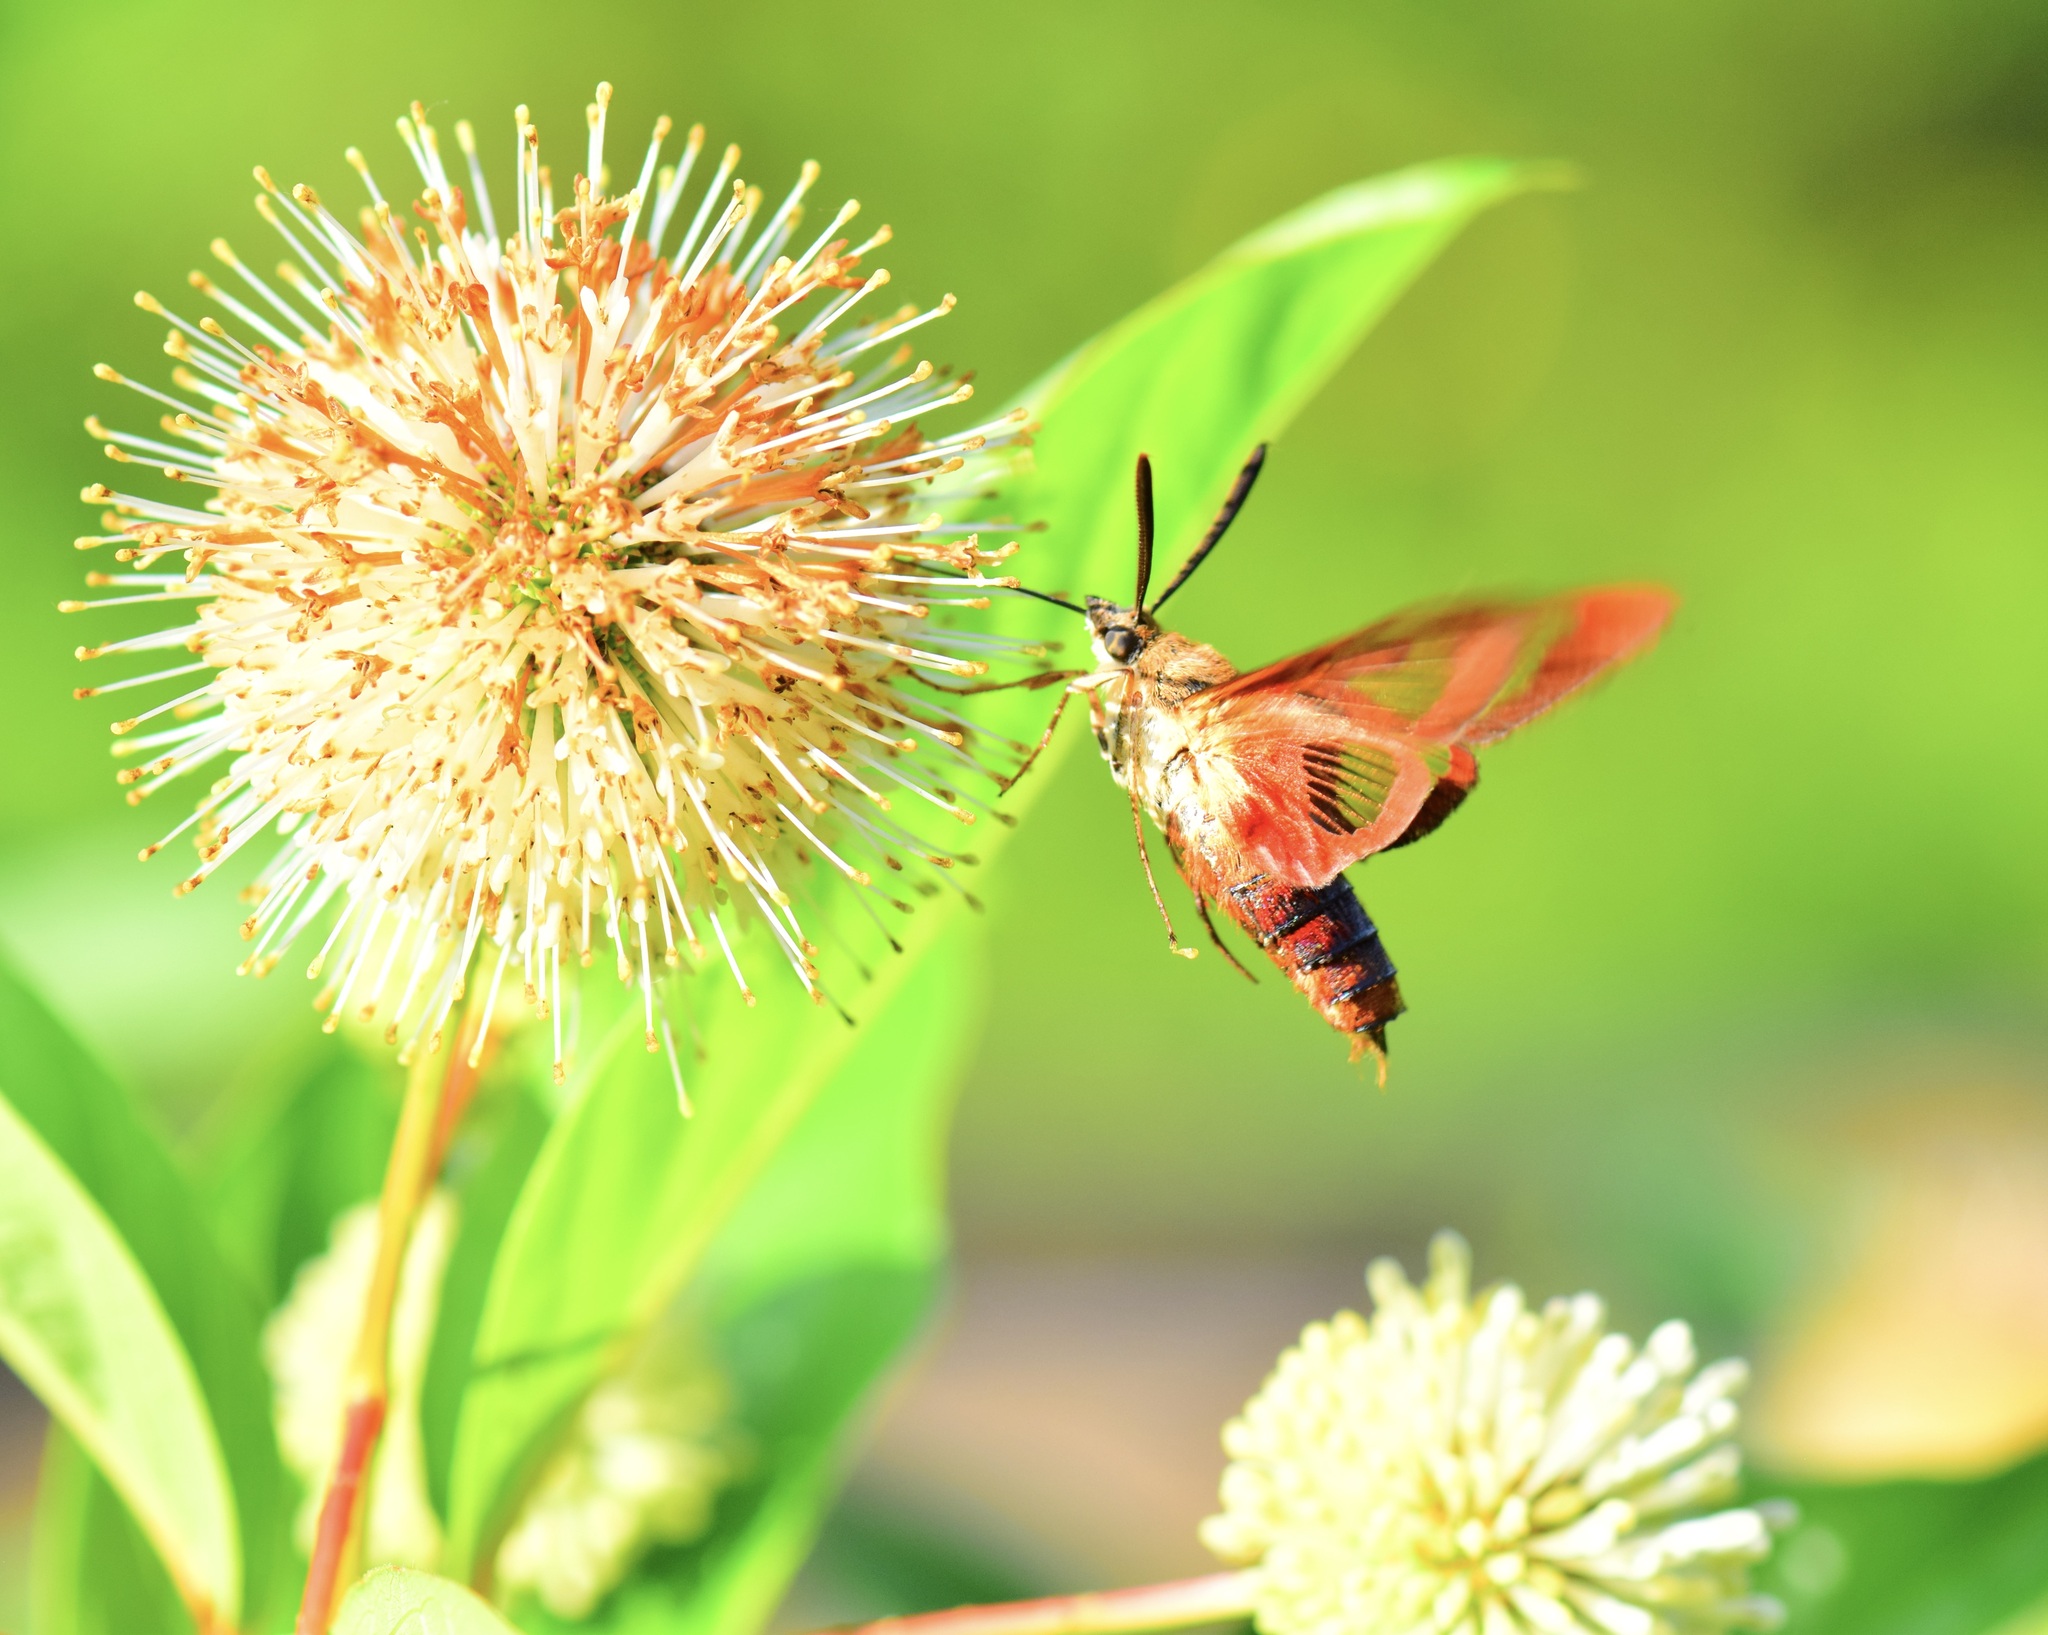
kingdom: Animalia
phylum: Arthropoda
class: Insecta
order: Lepidoptera
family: Sphingidae
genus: Hemaris
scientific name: Hemaris thysbe
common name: Common clear-wing
